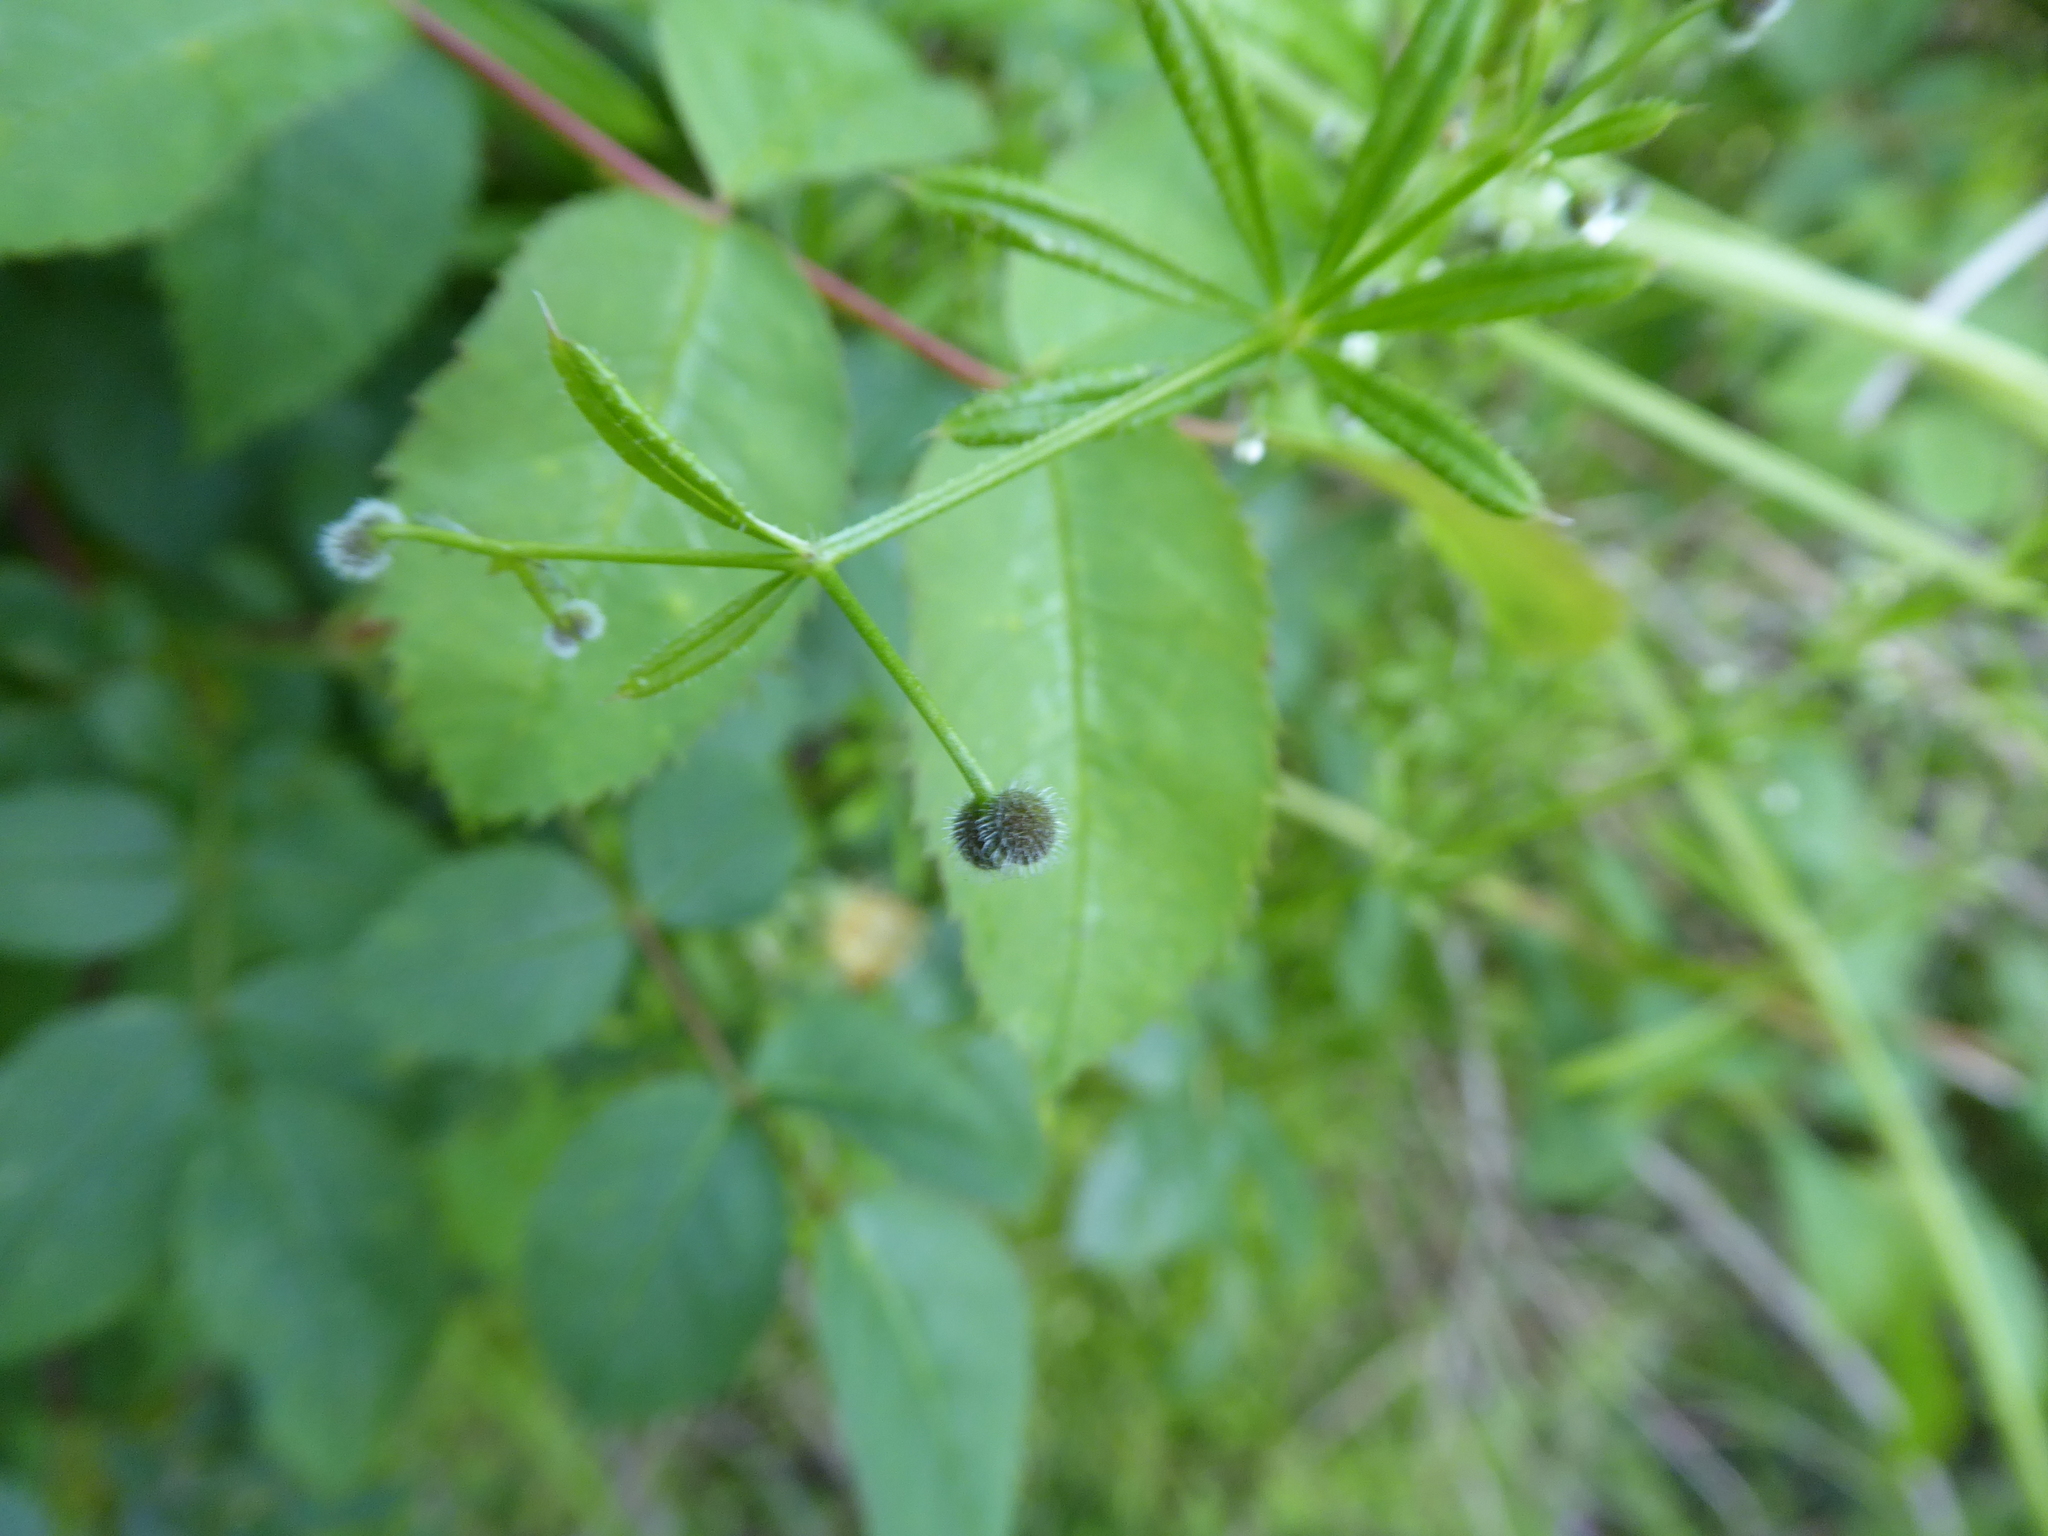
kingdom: Plantae
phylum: Tracheophyta
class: Magnoliopsida
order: Gentianales
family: Rubiaceae
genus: Galium
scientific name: Galium aparine
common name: Cleavers
